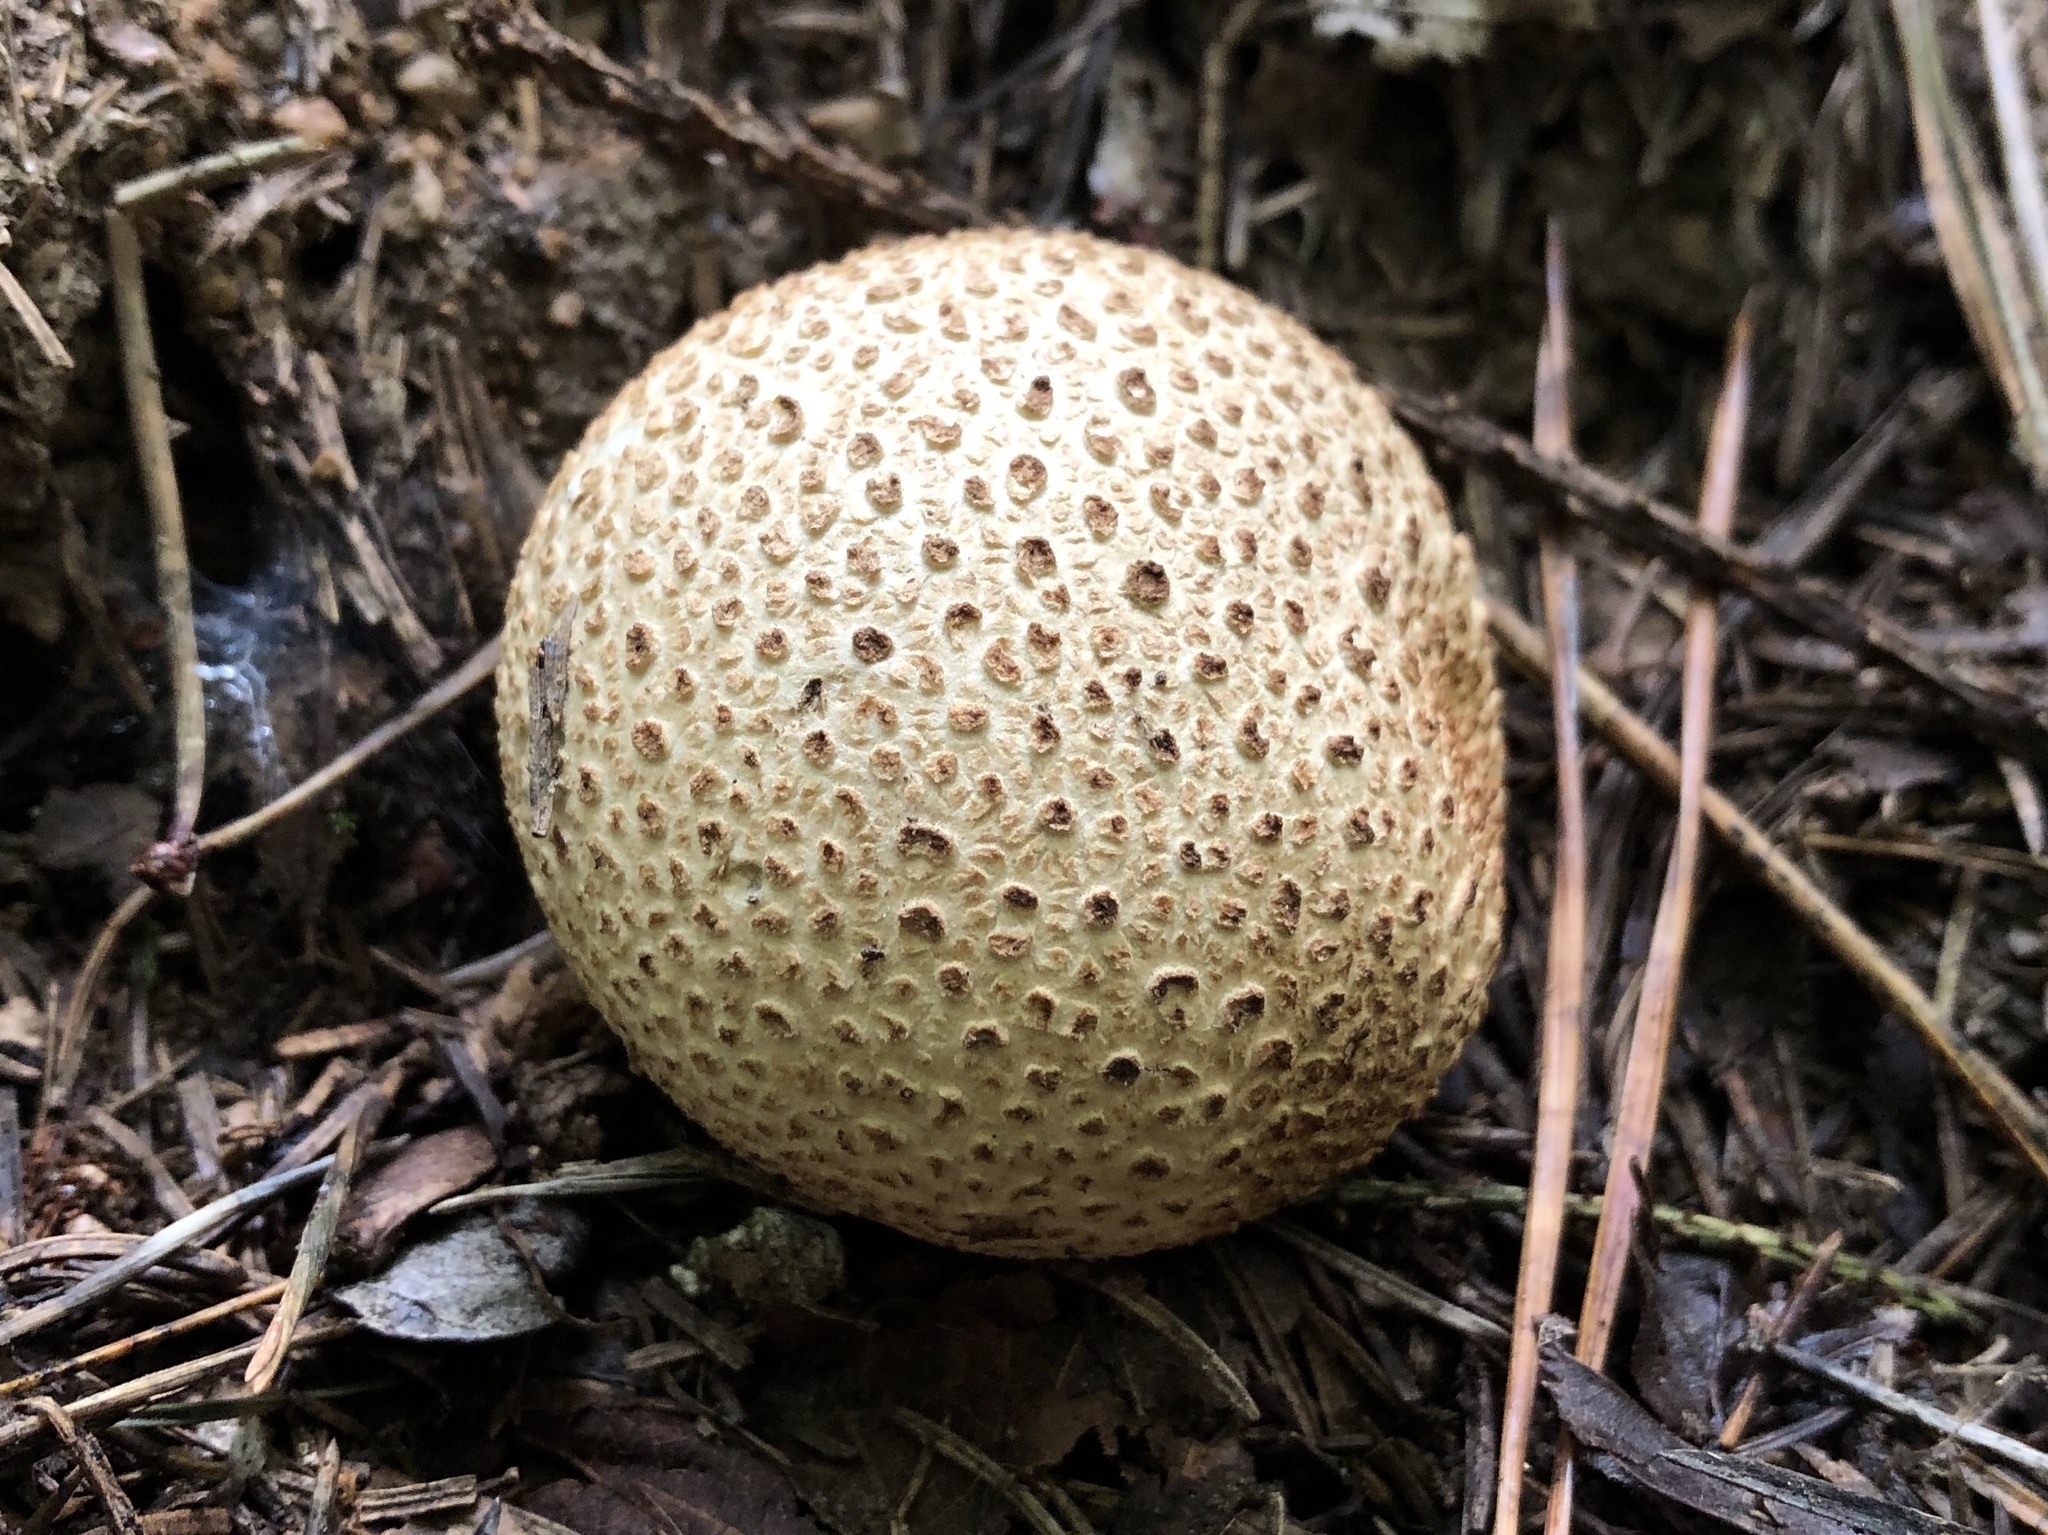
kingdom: Fungi
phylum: Basidiomycota
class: Agaricomycetes
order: Boletales
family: Sclerodermataceae
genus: Scleroderma
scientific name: Scleroderma citrinum
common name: Common earthball
